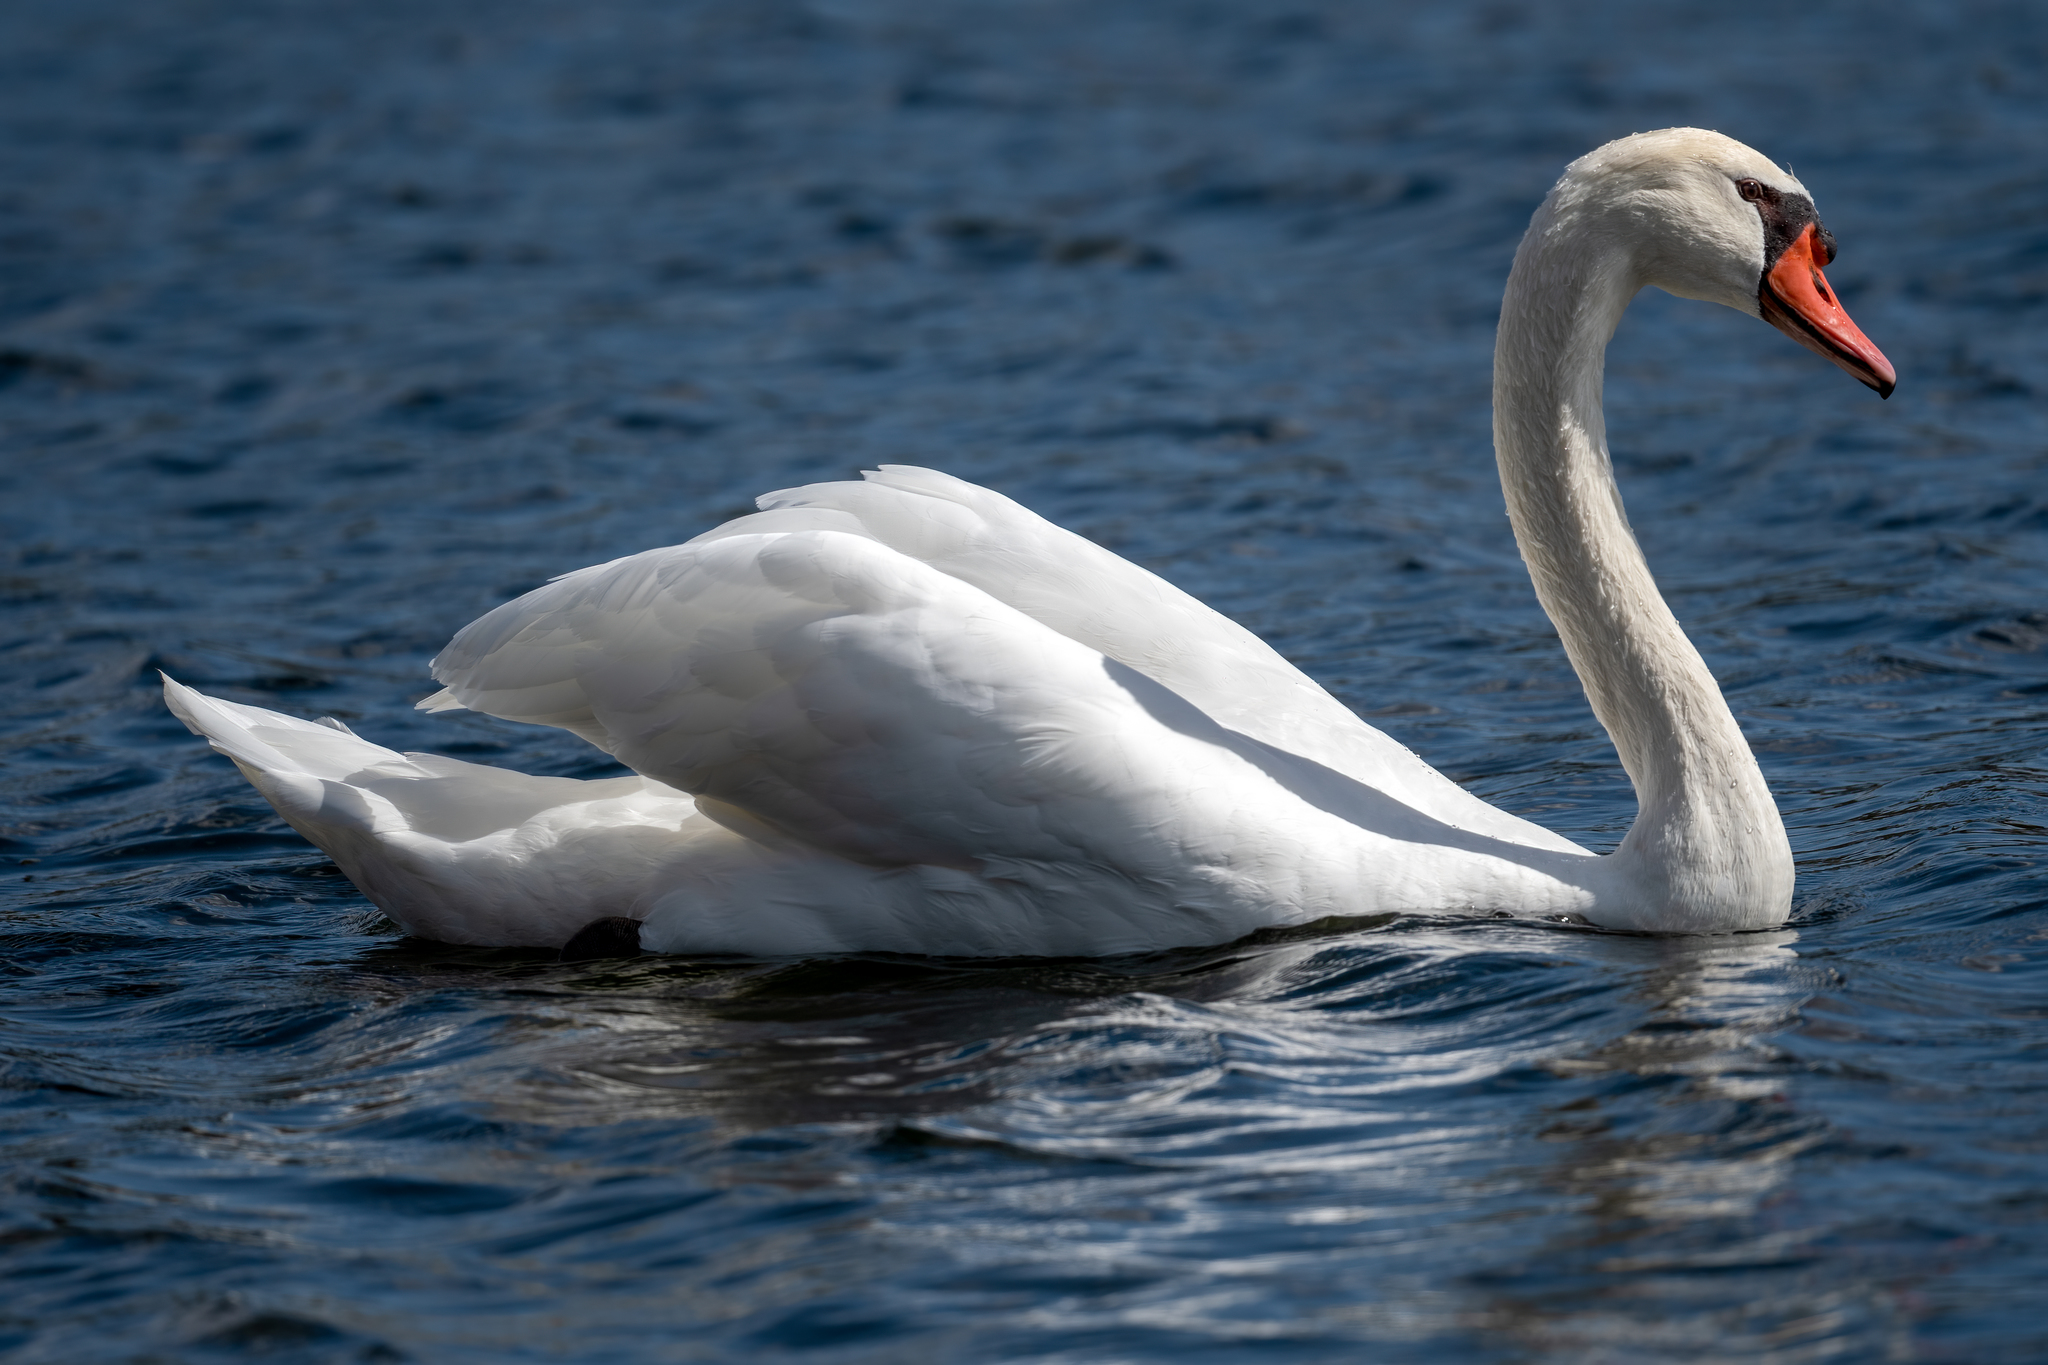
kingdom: Animalia
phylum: Chordata
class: Aves
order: Anseriformes
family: Anatidae
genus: Cygnus
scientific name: Cygnus olor
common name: Mute swan
